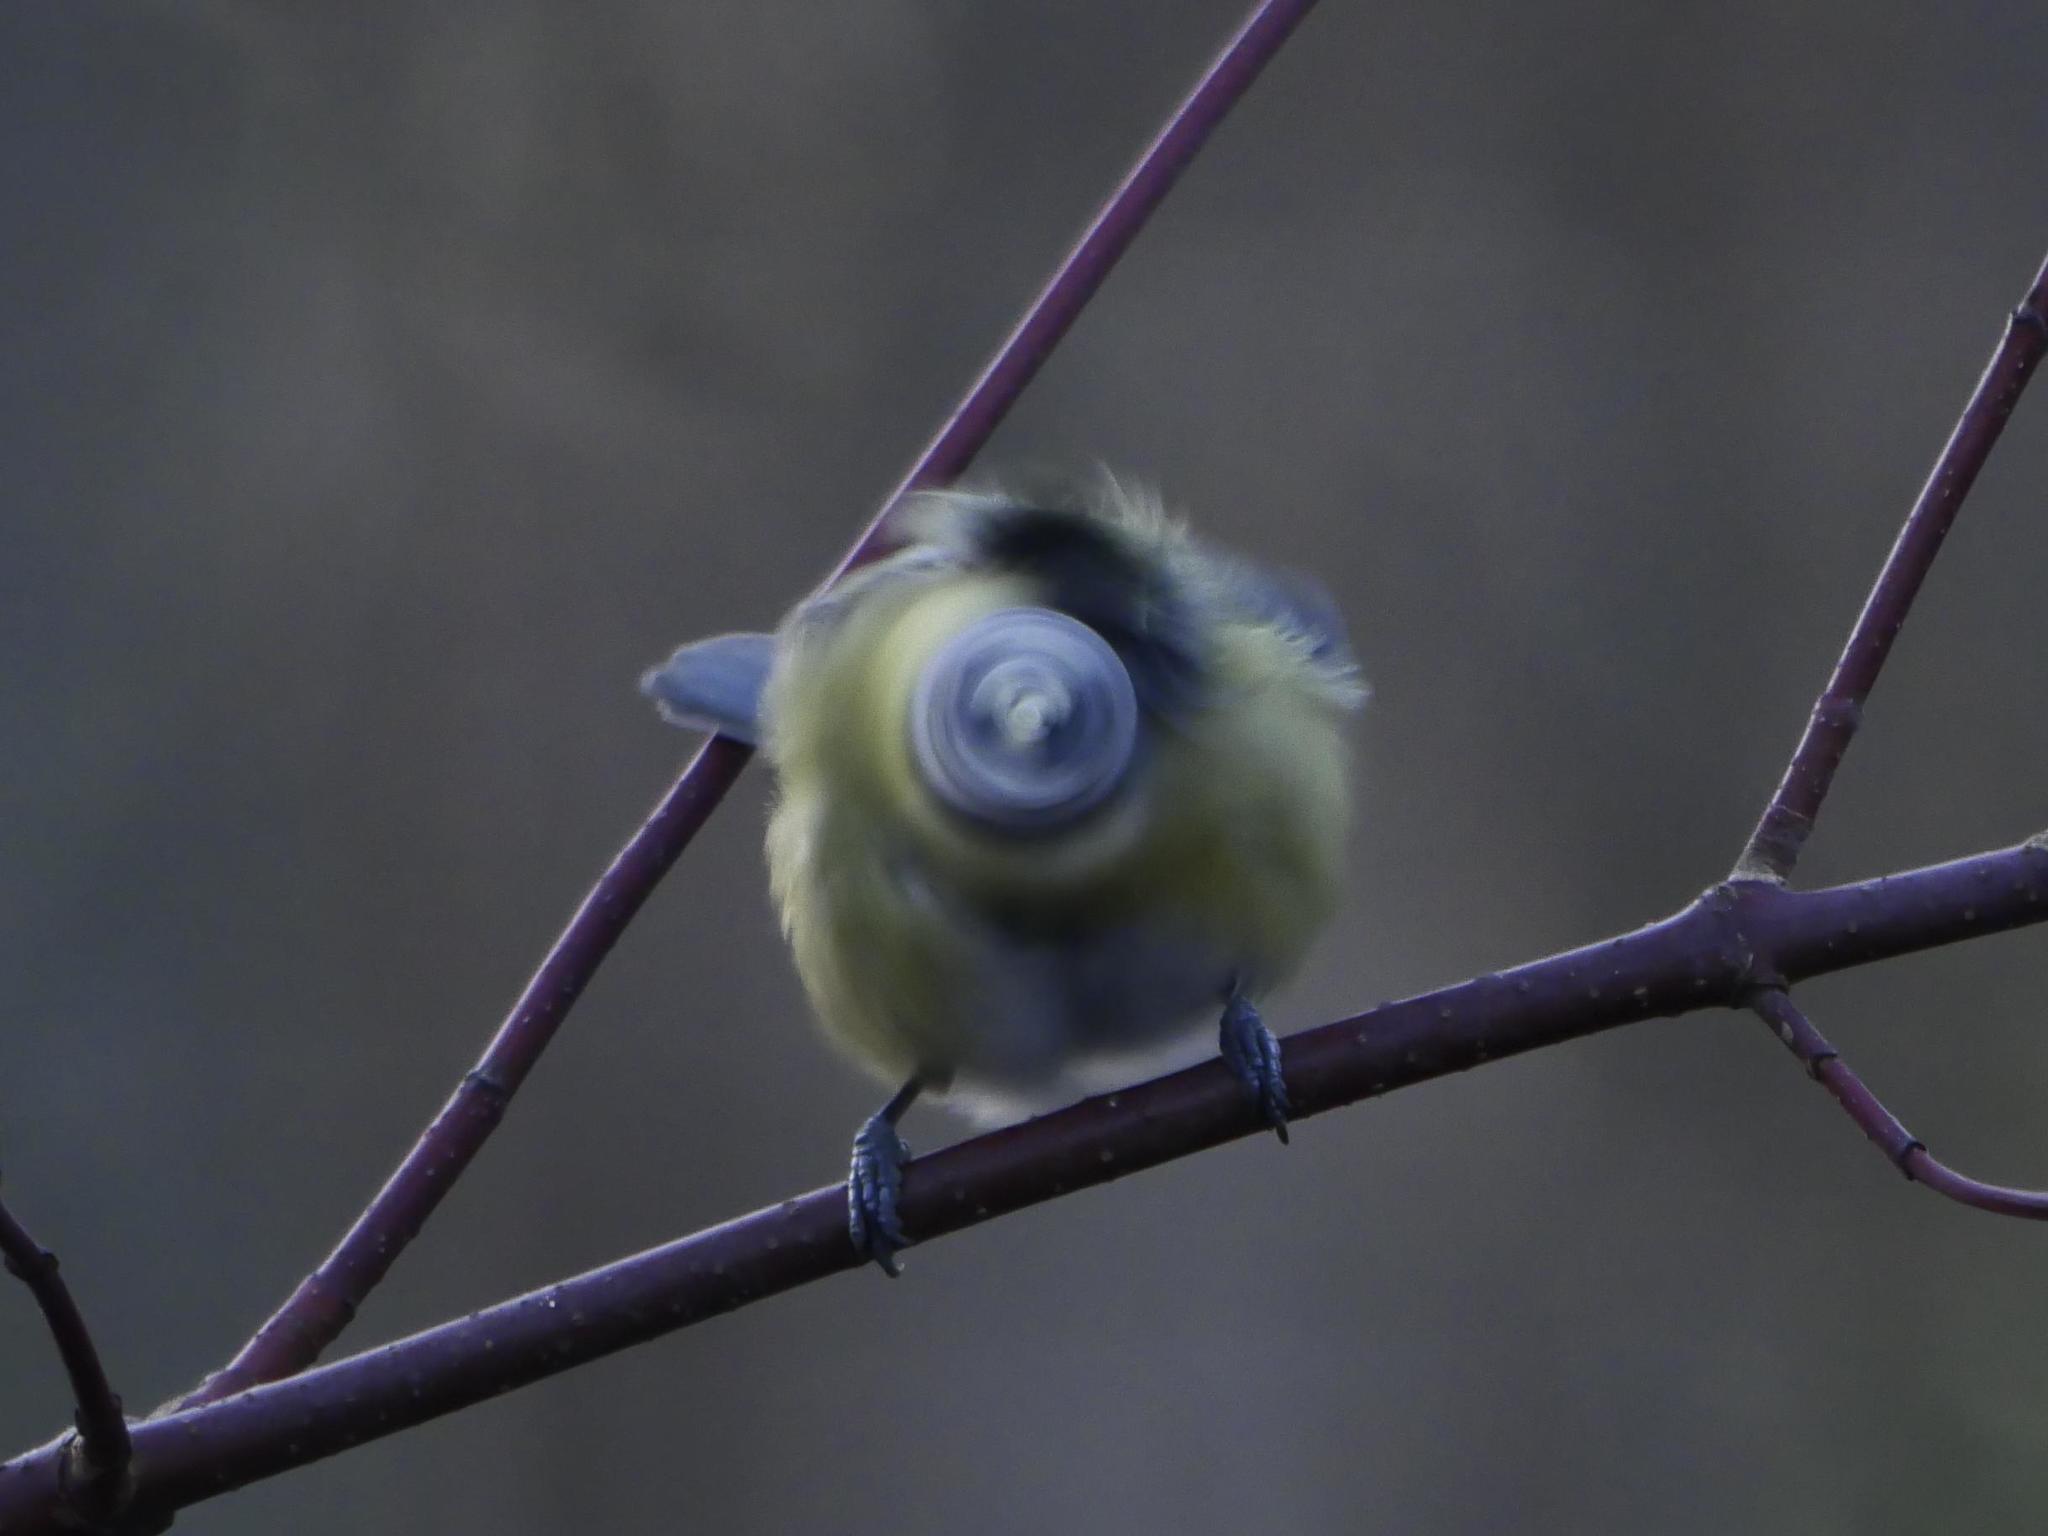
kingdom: Animalia
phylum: Chordata
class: Aves
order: Passeriformes
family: Paridae
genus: Cyanistes
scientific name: Cyanistes caeruleus
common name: Eurasian blue tit
